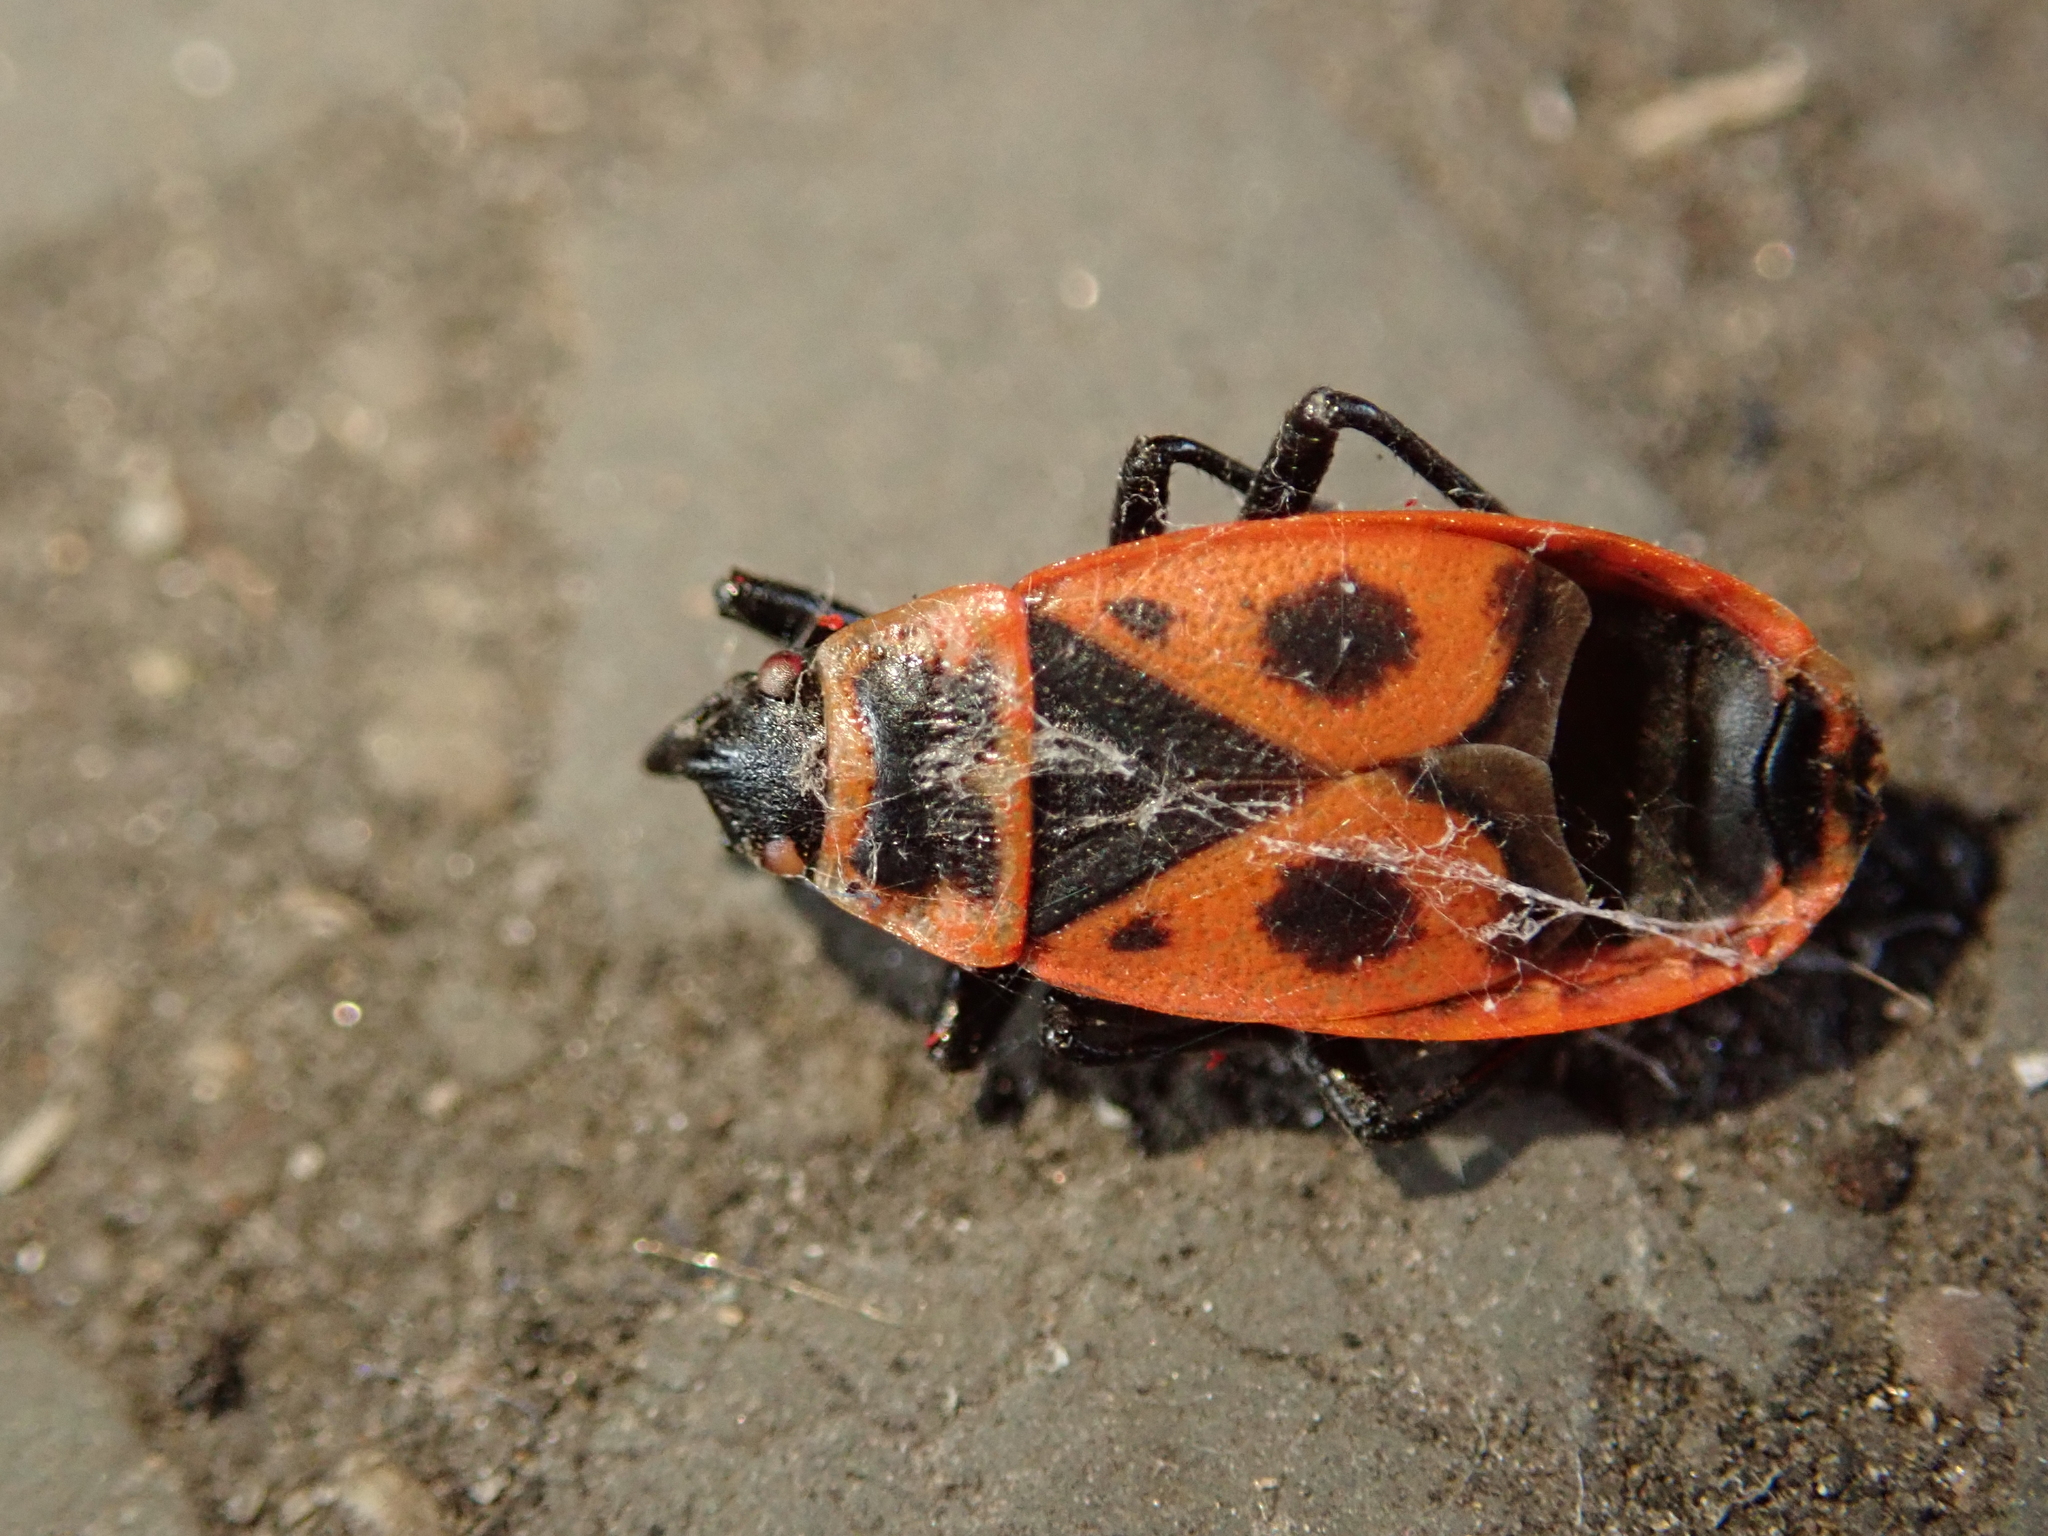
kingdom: Animalia
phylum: Arthropoda
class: Insecta
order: Hemiptera
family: Pyrrhocoridae
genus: Pyrrhocoris
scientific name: Pyrrhocoris apterus
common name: Firebug
